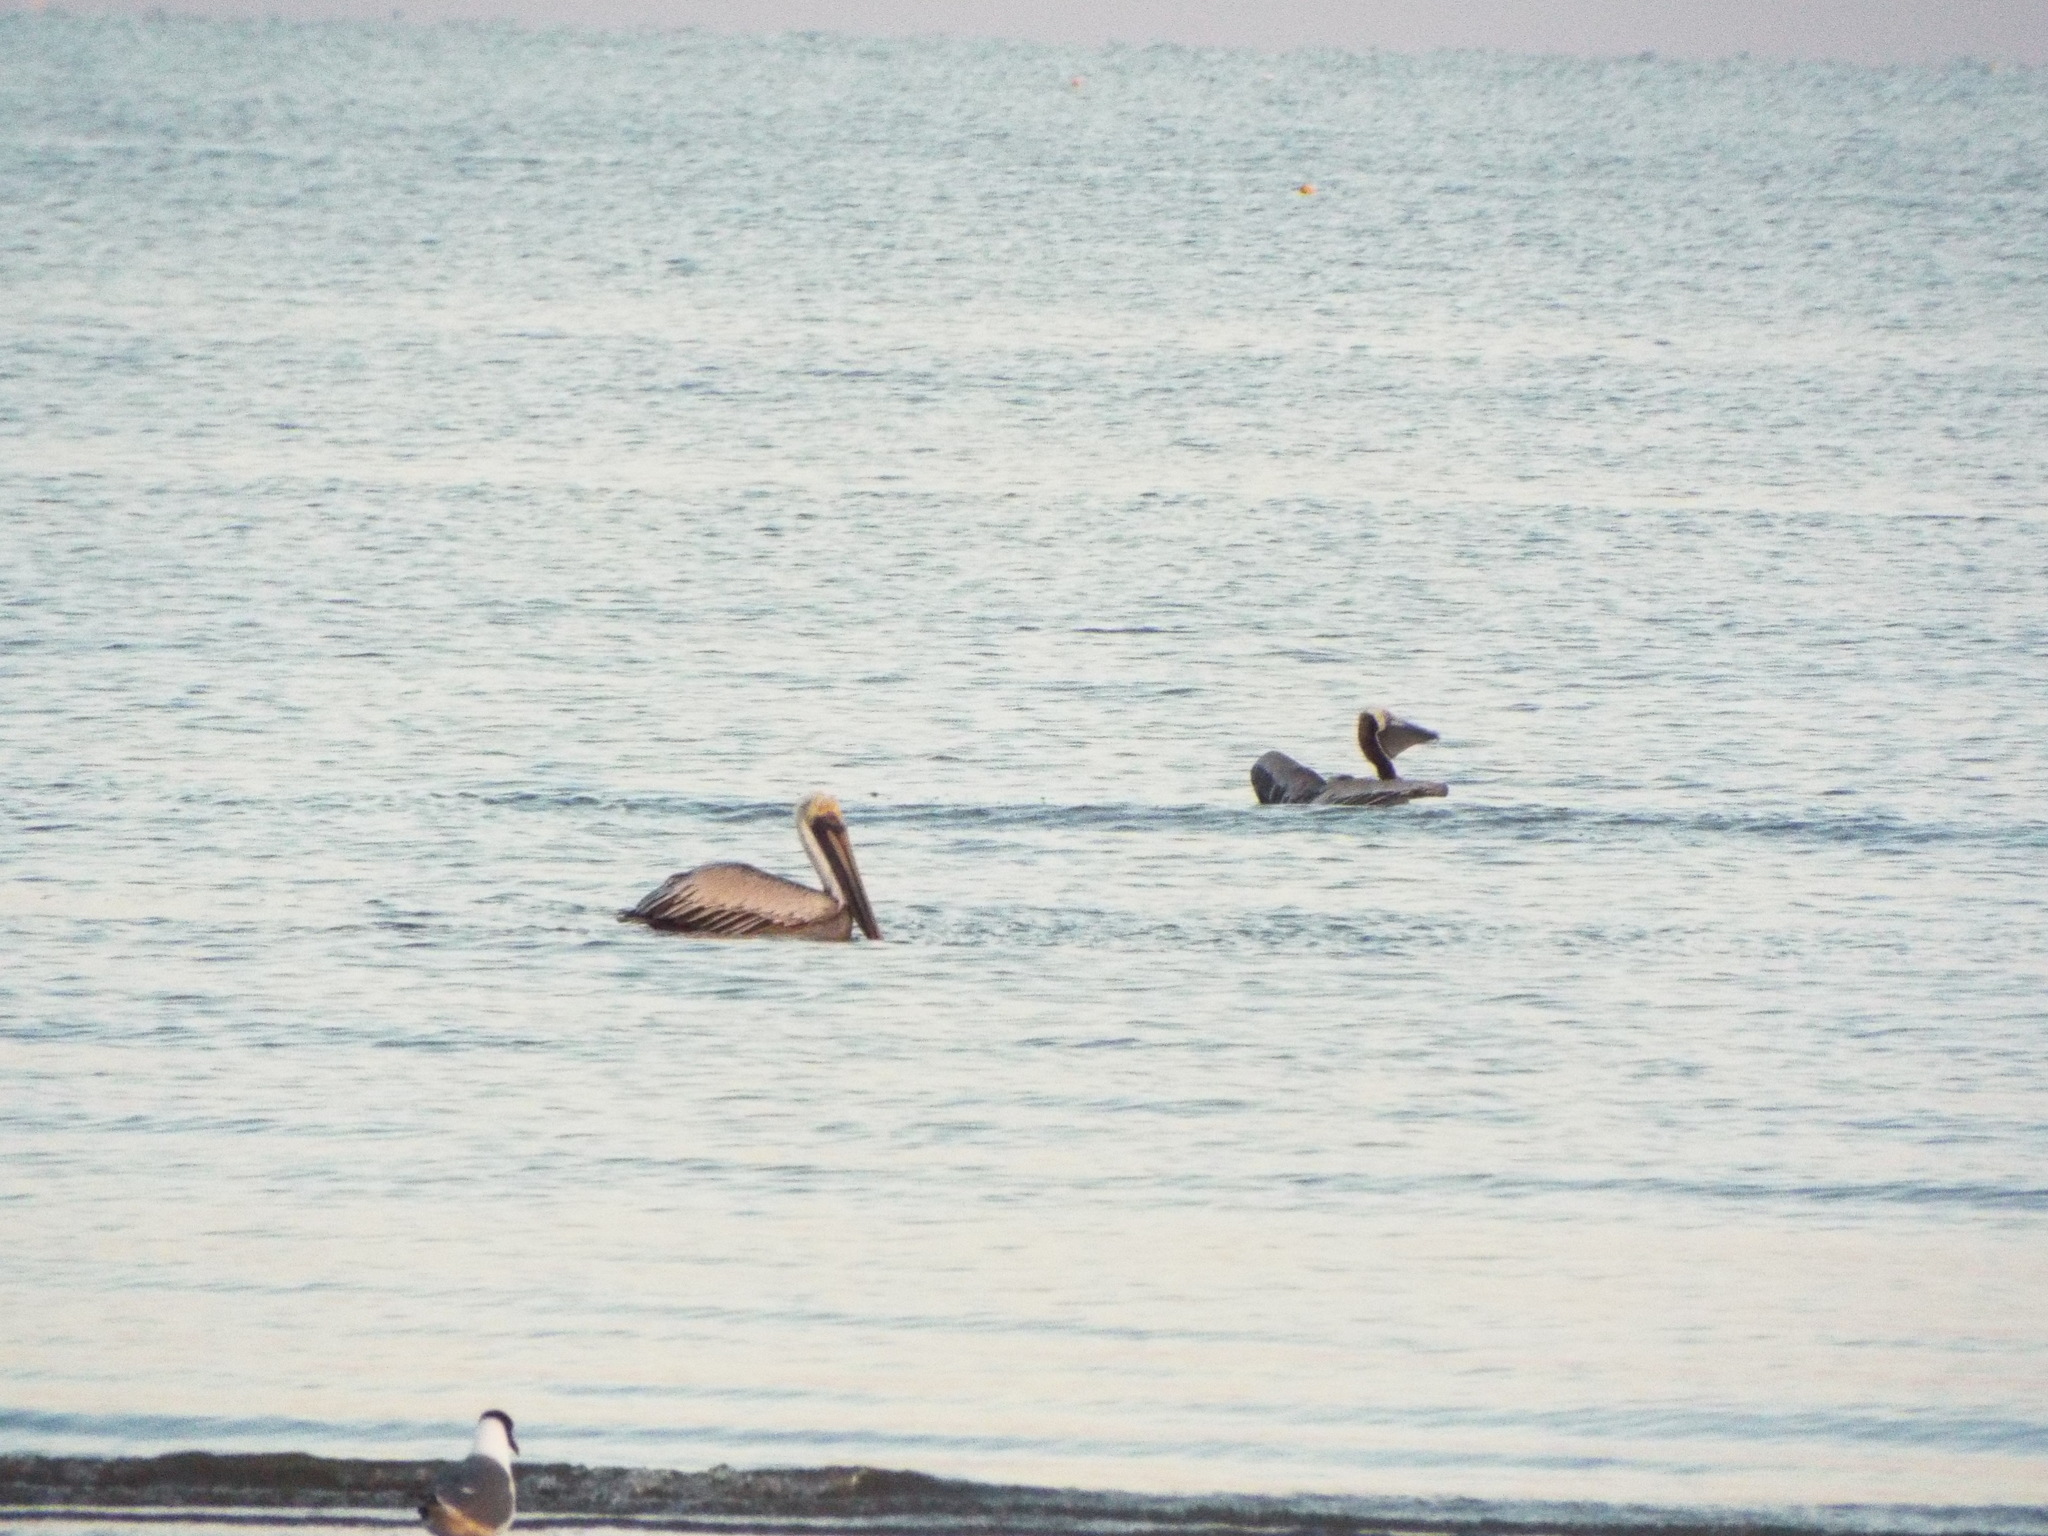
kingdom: Animalia
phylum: Chordata
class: Aves
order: Pelecaniformes
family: Pelecanidae
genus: Pelecanus
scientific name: Pelecanus occidentalis
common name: Brown pelican
